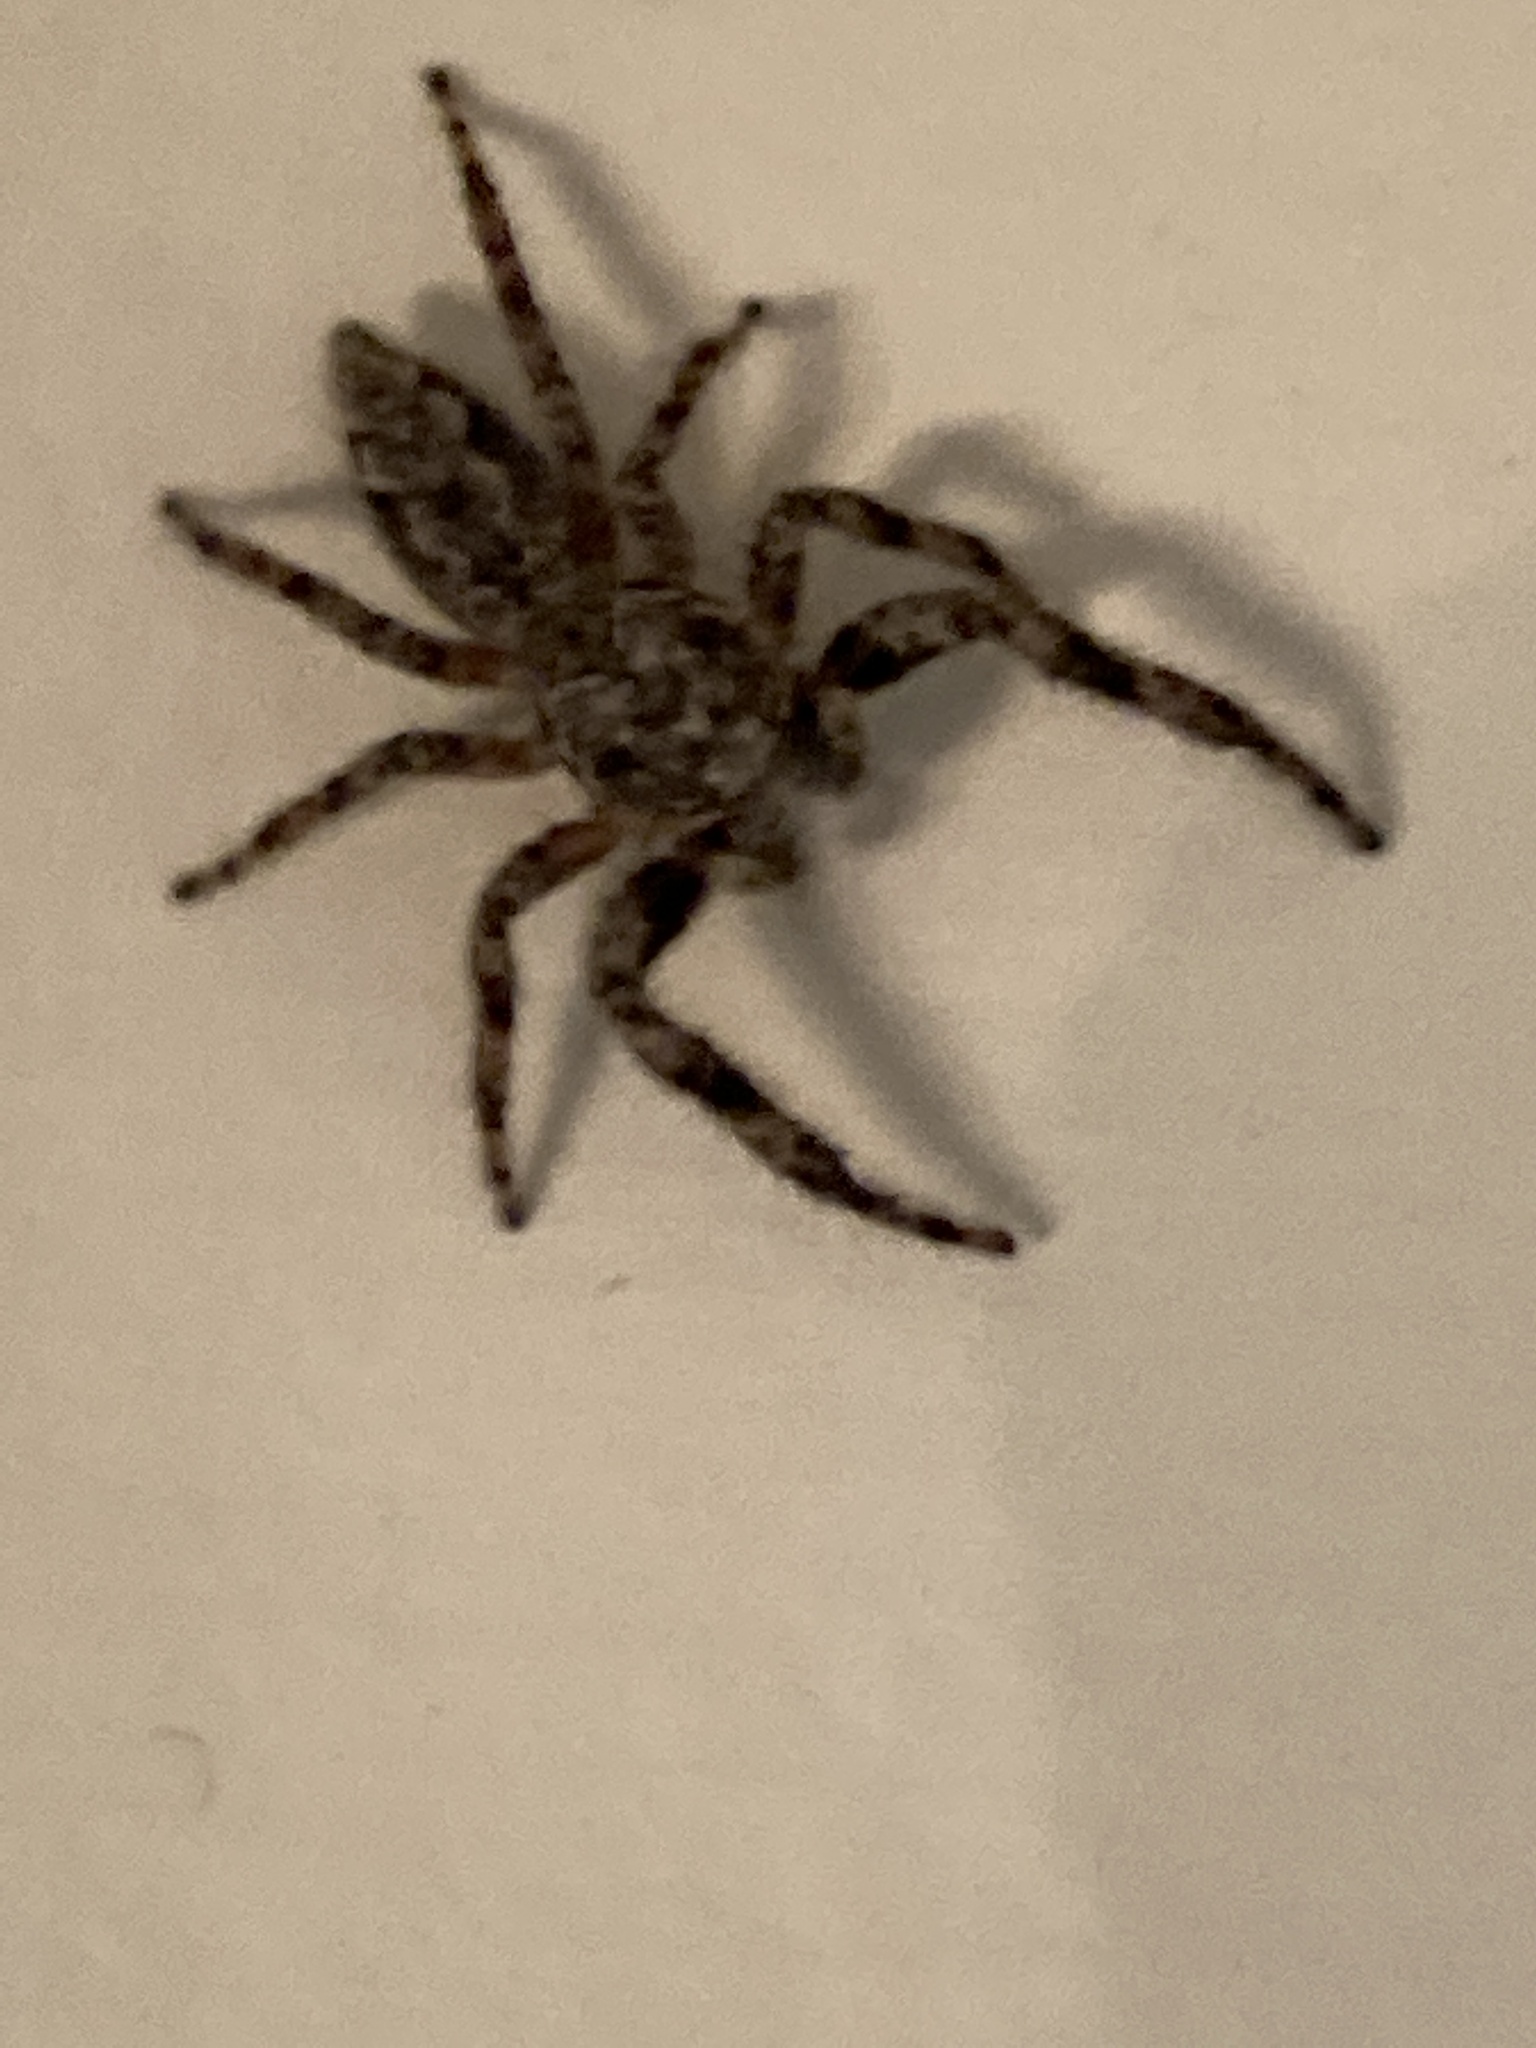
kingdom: Animalia
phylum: Arthropoda
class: Arachnida
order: Araneae
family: Salticidae
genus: Platycryptus
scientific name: Platycryptus undatus
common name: Tan jumping spider
